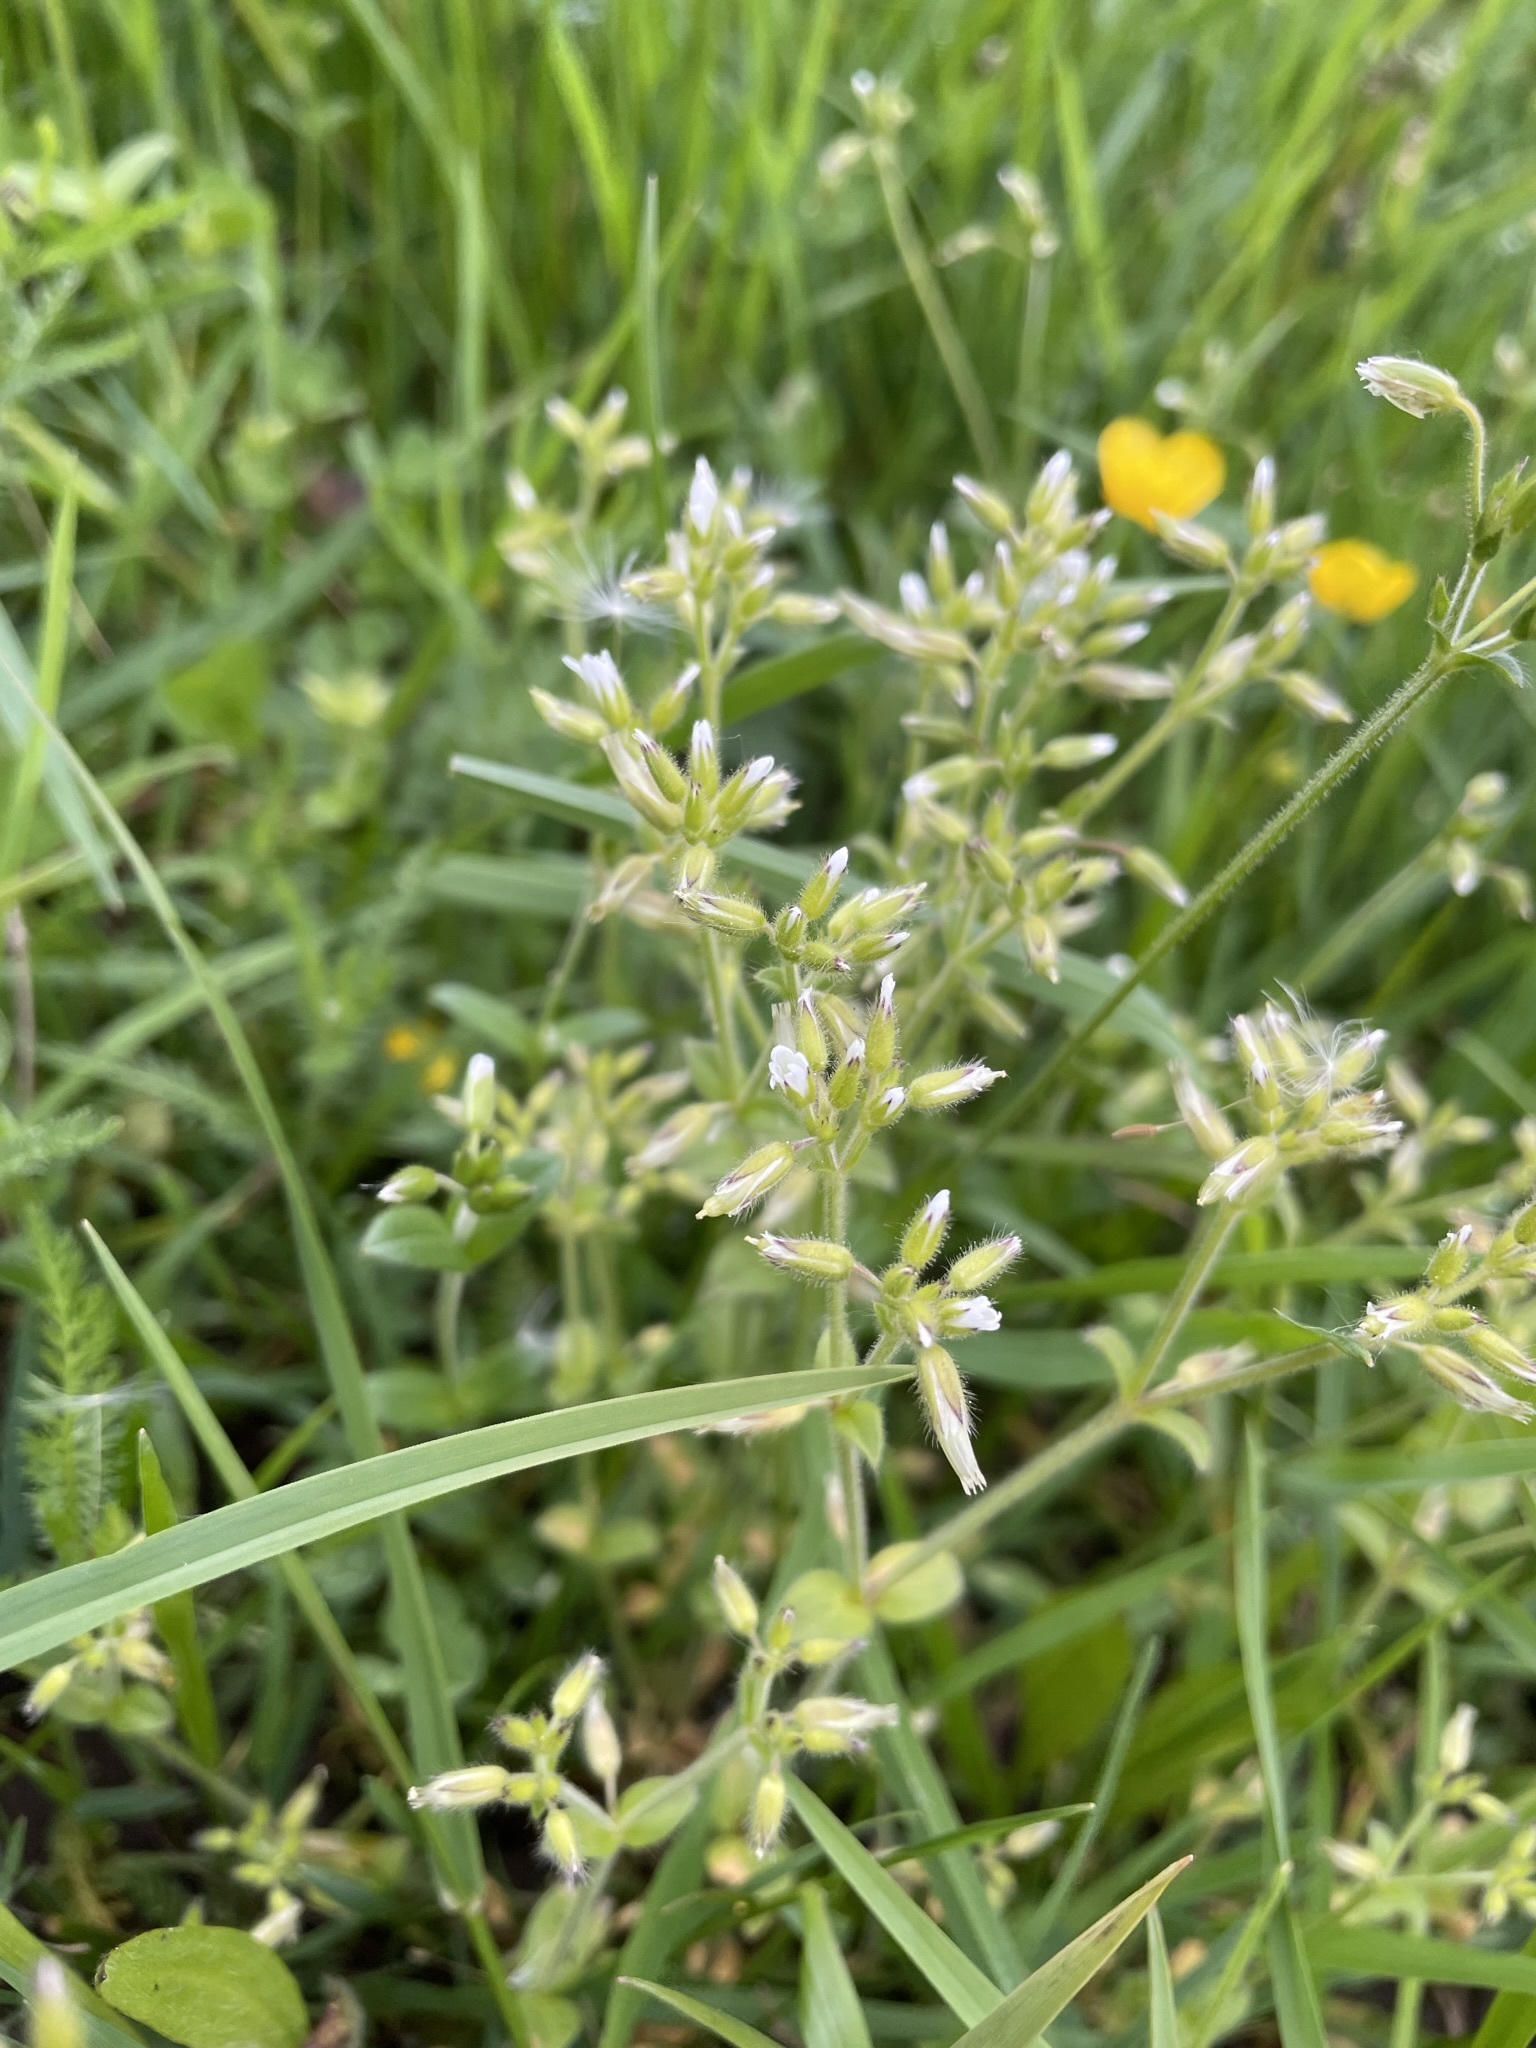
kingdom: Plantae
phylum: Tracheophyta
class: Magnoliopsida
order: Caryophyllales
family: Caryophyllaceae
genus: Cerastium
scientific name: Cerastium glomeratum
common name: Sticky chickweed
